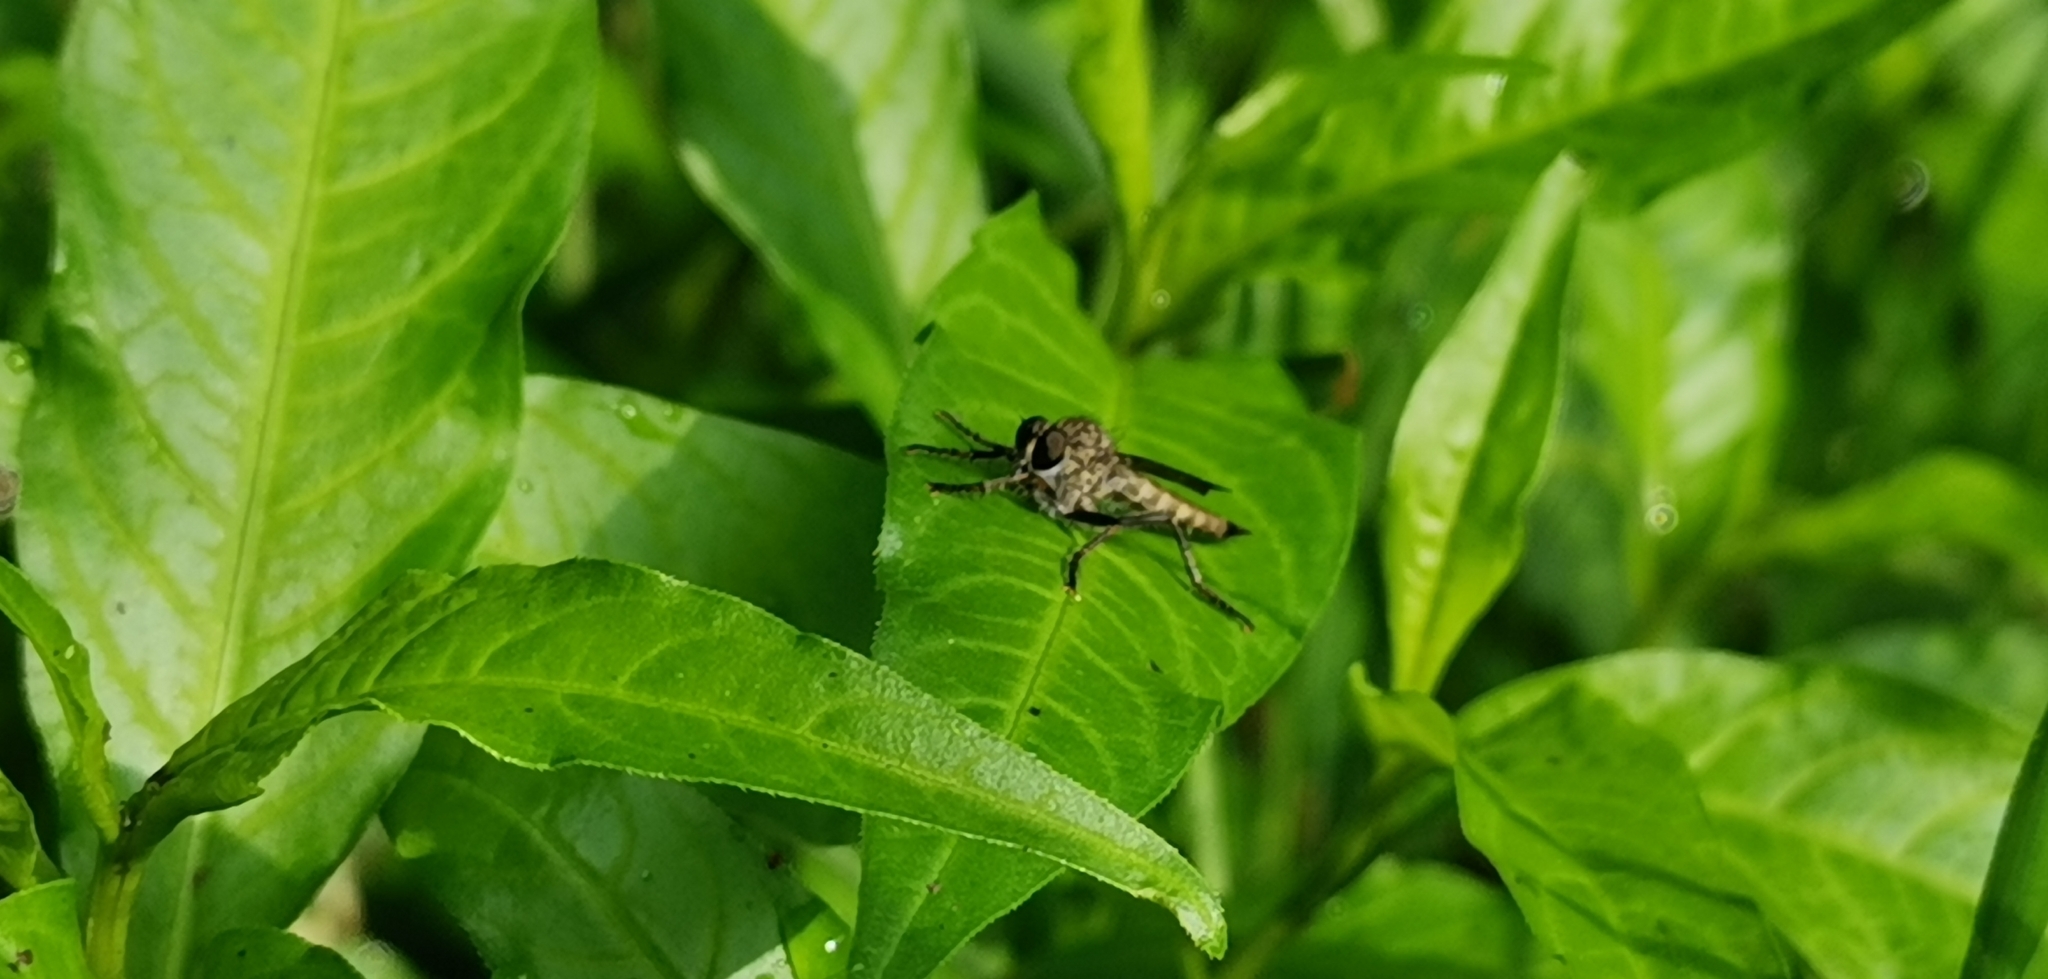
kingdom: Animalia
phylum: Arthropoda
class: Insecta
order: Diptera
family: Asilidae
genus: Machimus
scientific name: Machimus atricapillus
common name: Kite-tailed robberfly
